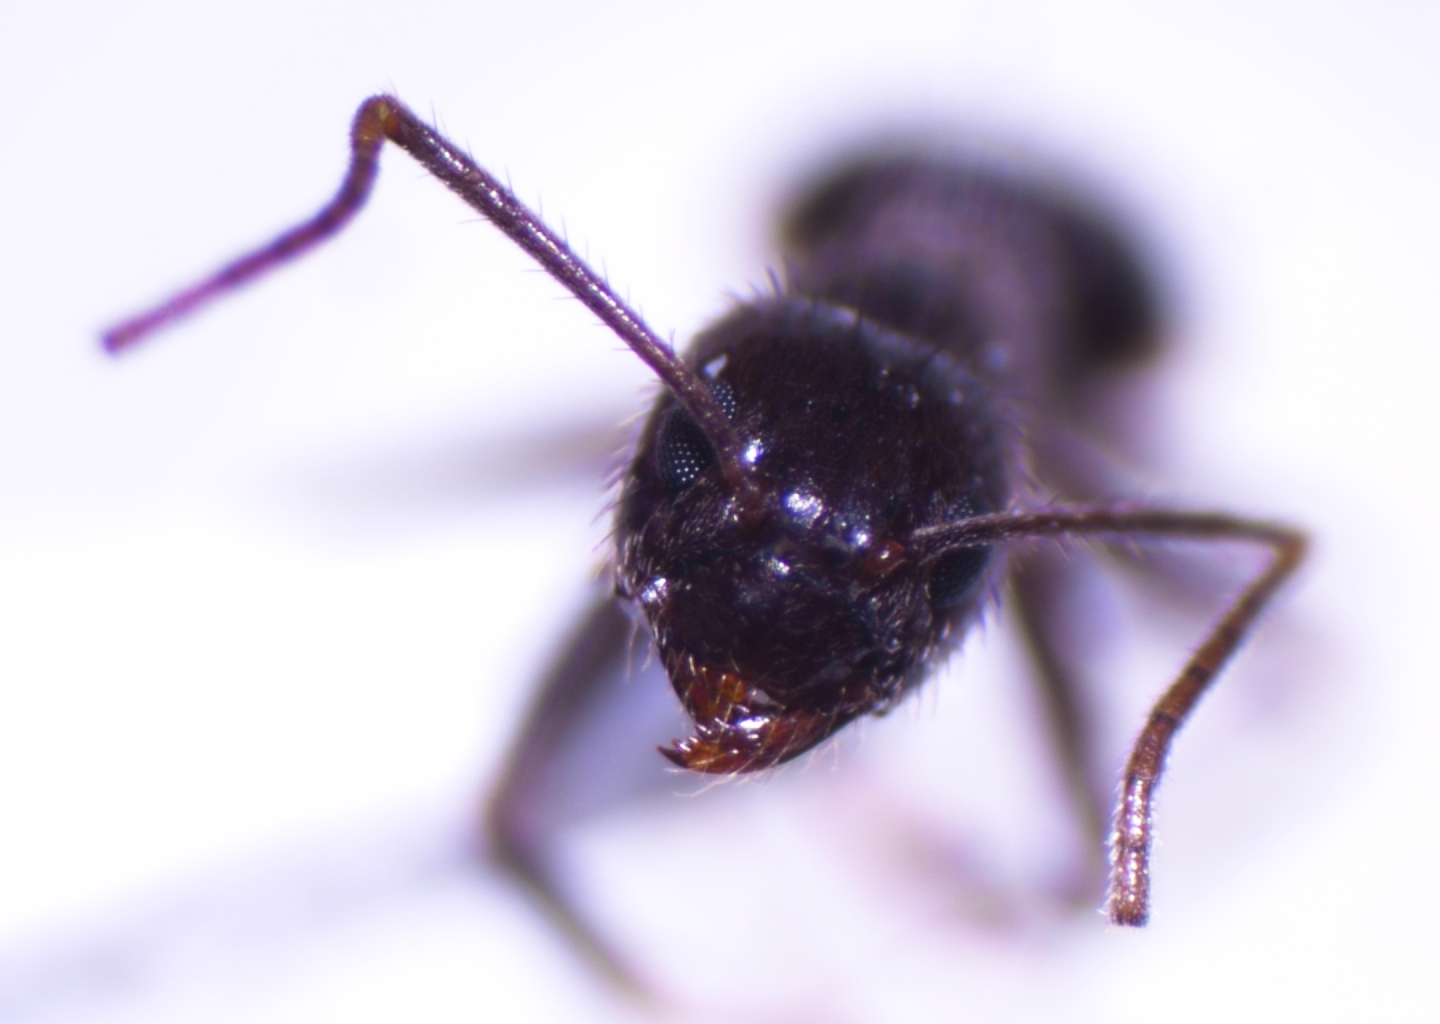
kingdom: Animalia
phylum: Arthropoda
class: Insecta
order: Hymenoptera
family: Formicidae
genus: Paratrechina
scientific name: Paratrechina bourbonica
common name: Ant
